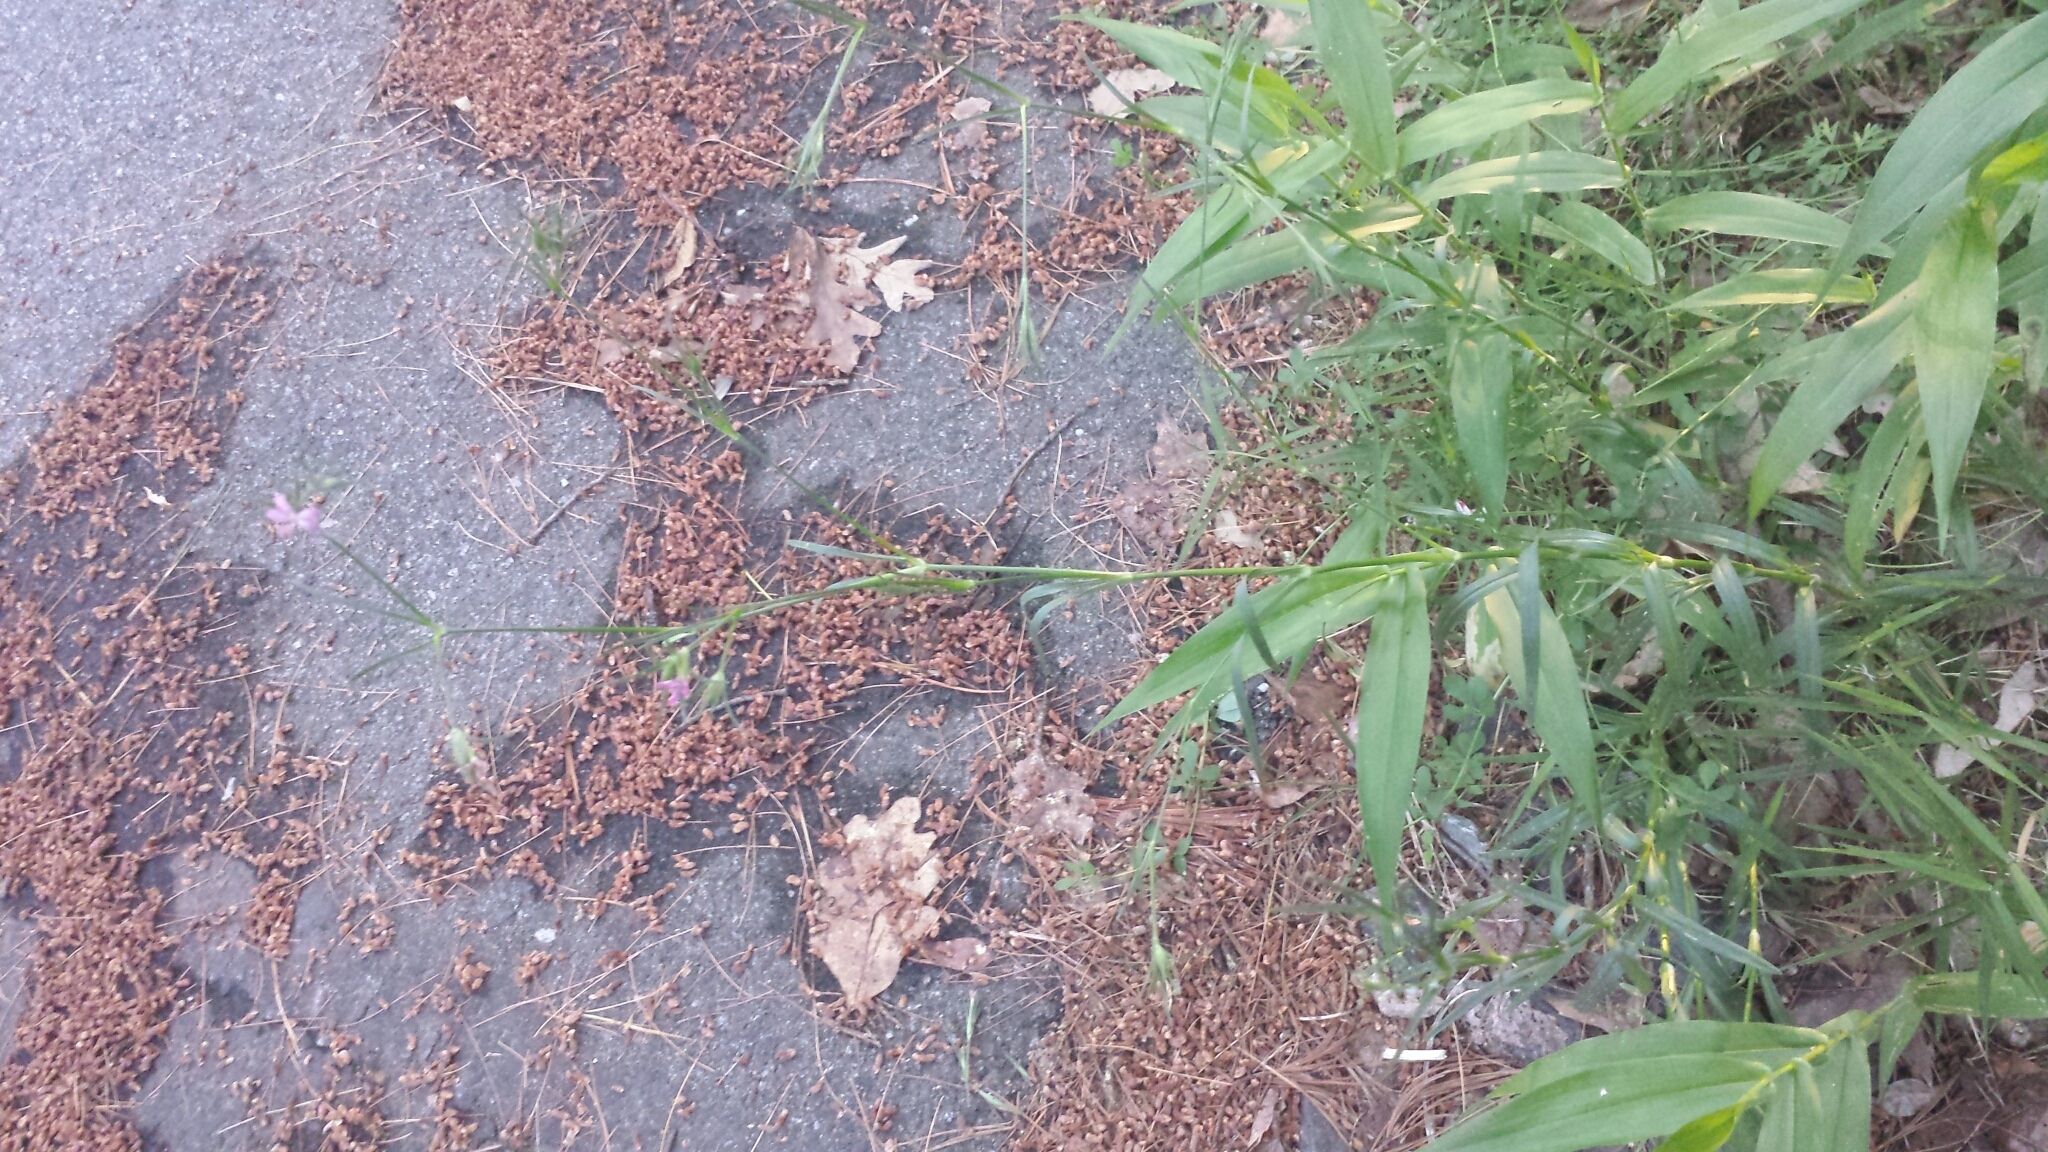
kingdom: Plantae
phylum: Tracheophyta
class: Magnoliopsida
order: Caryophyllales
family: Caryophyllaceae
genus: Dianthus
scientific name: Dianthus armeria
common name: Deptford pink
